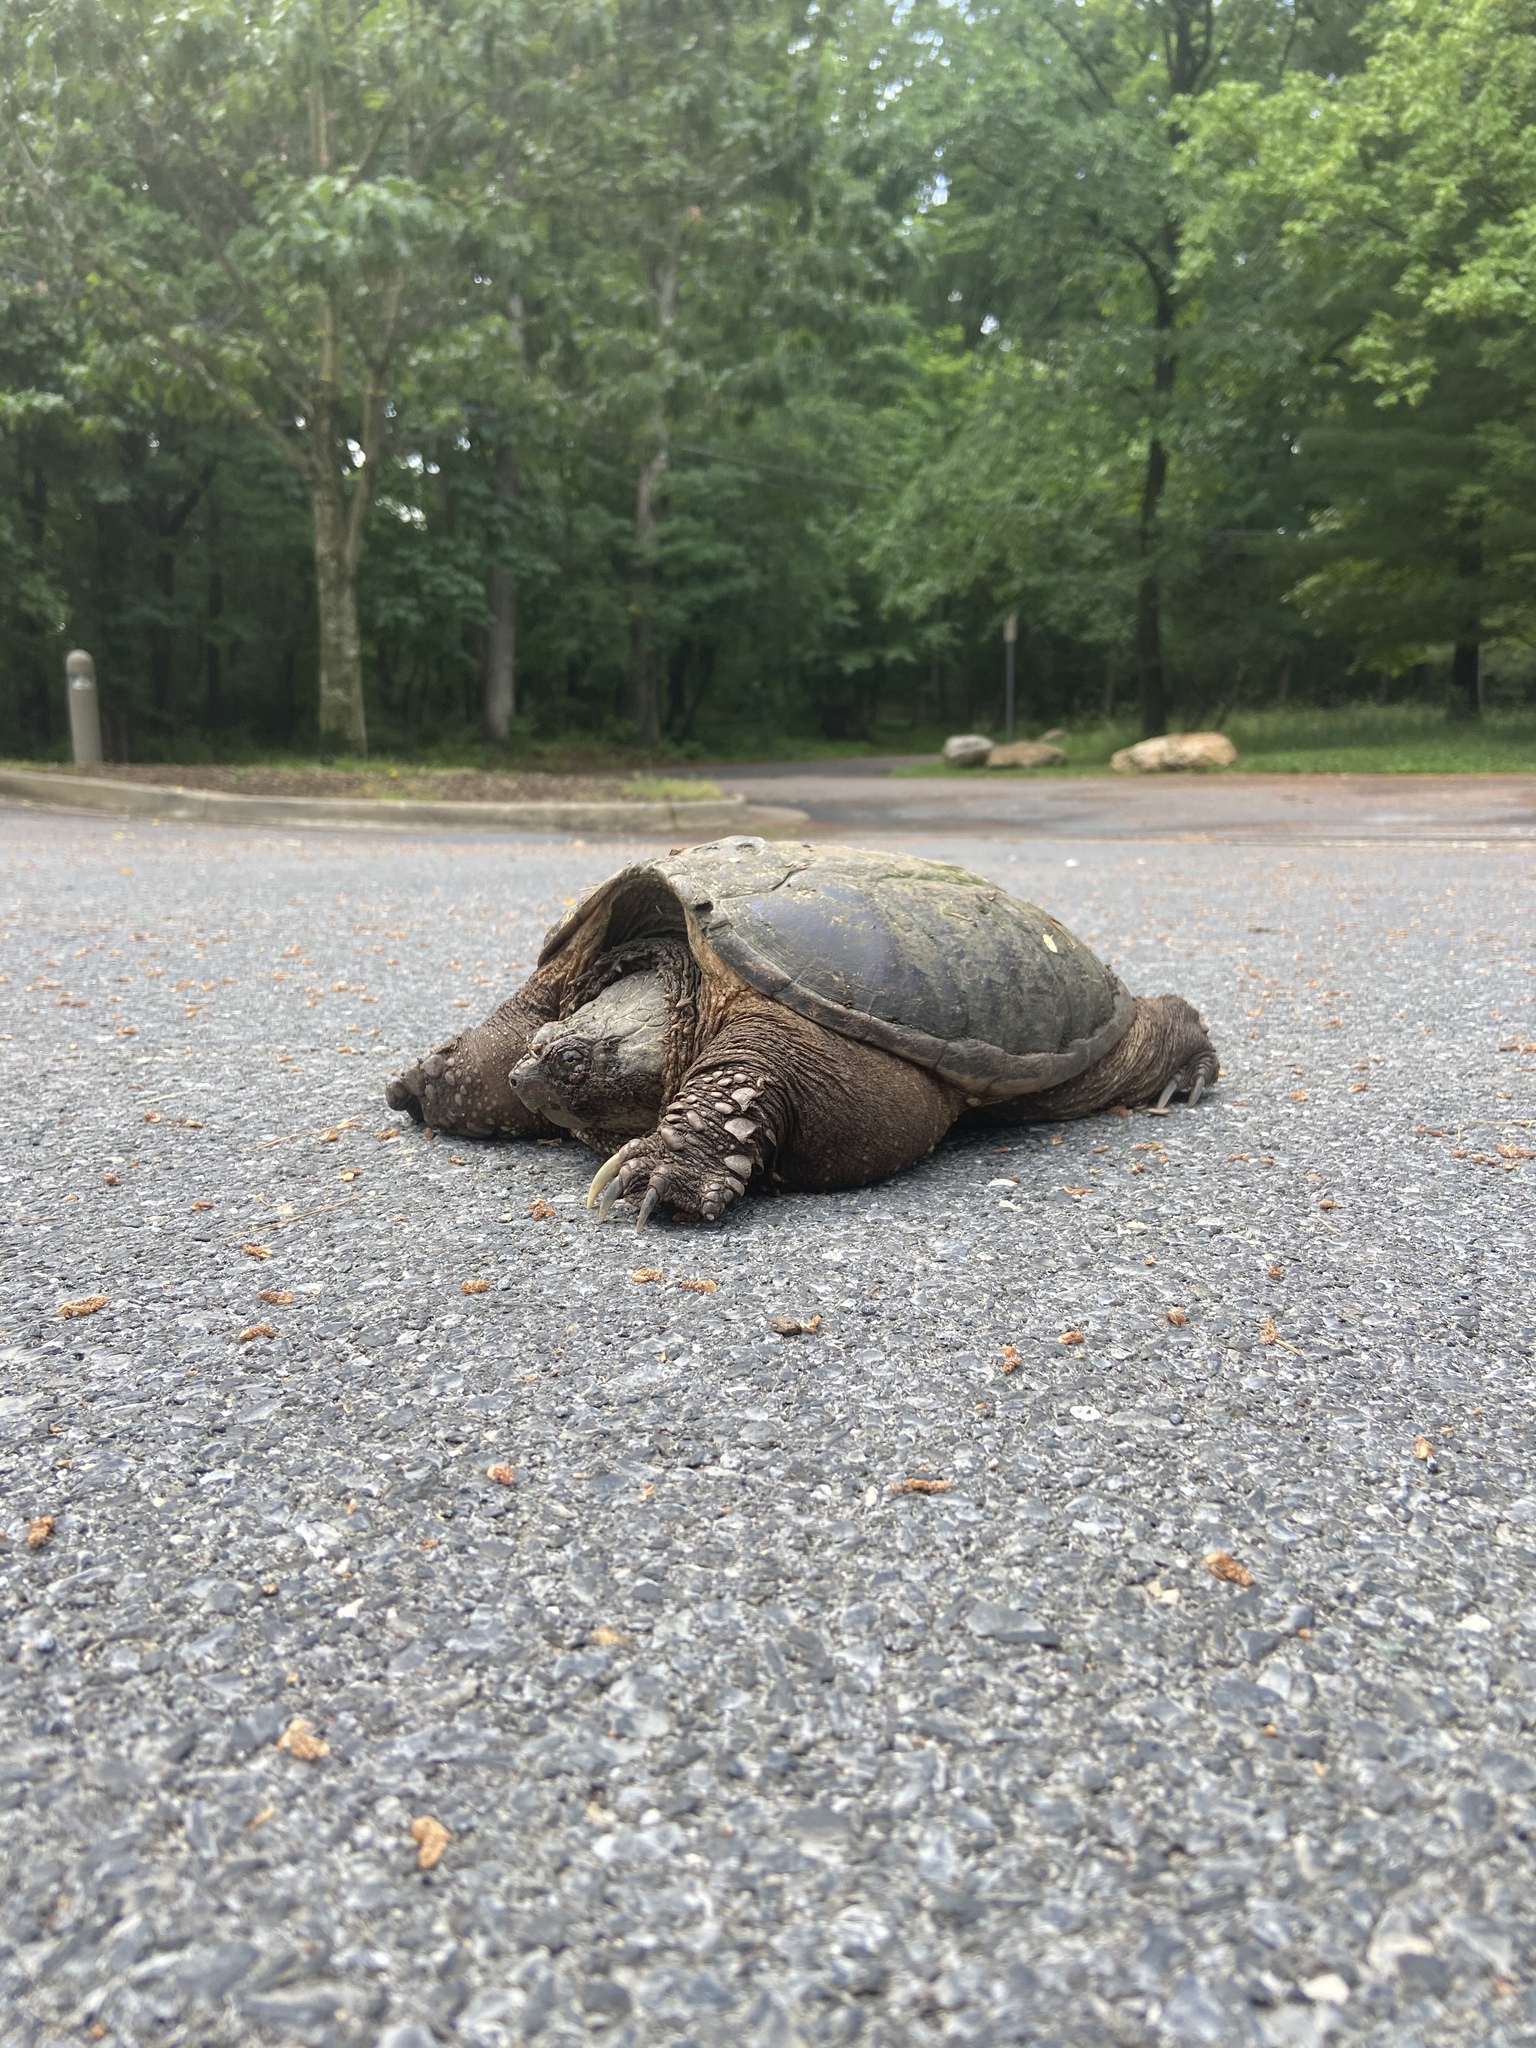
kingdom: Animalia
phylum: Chordata
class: Testudines
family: Chelydridae
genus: Chelydra
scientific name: Chelydra serpentina
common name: Common snapping turtle
